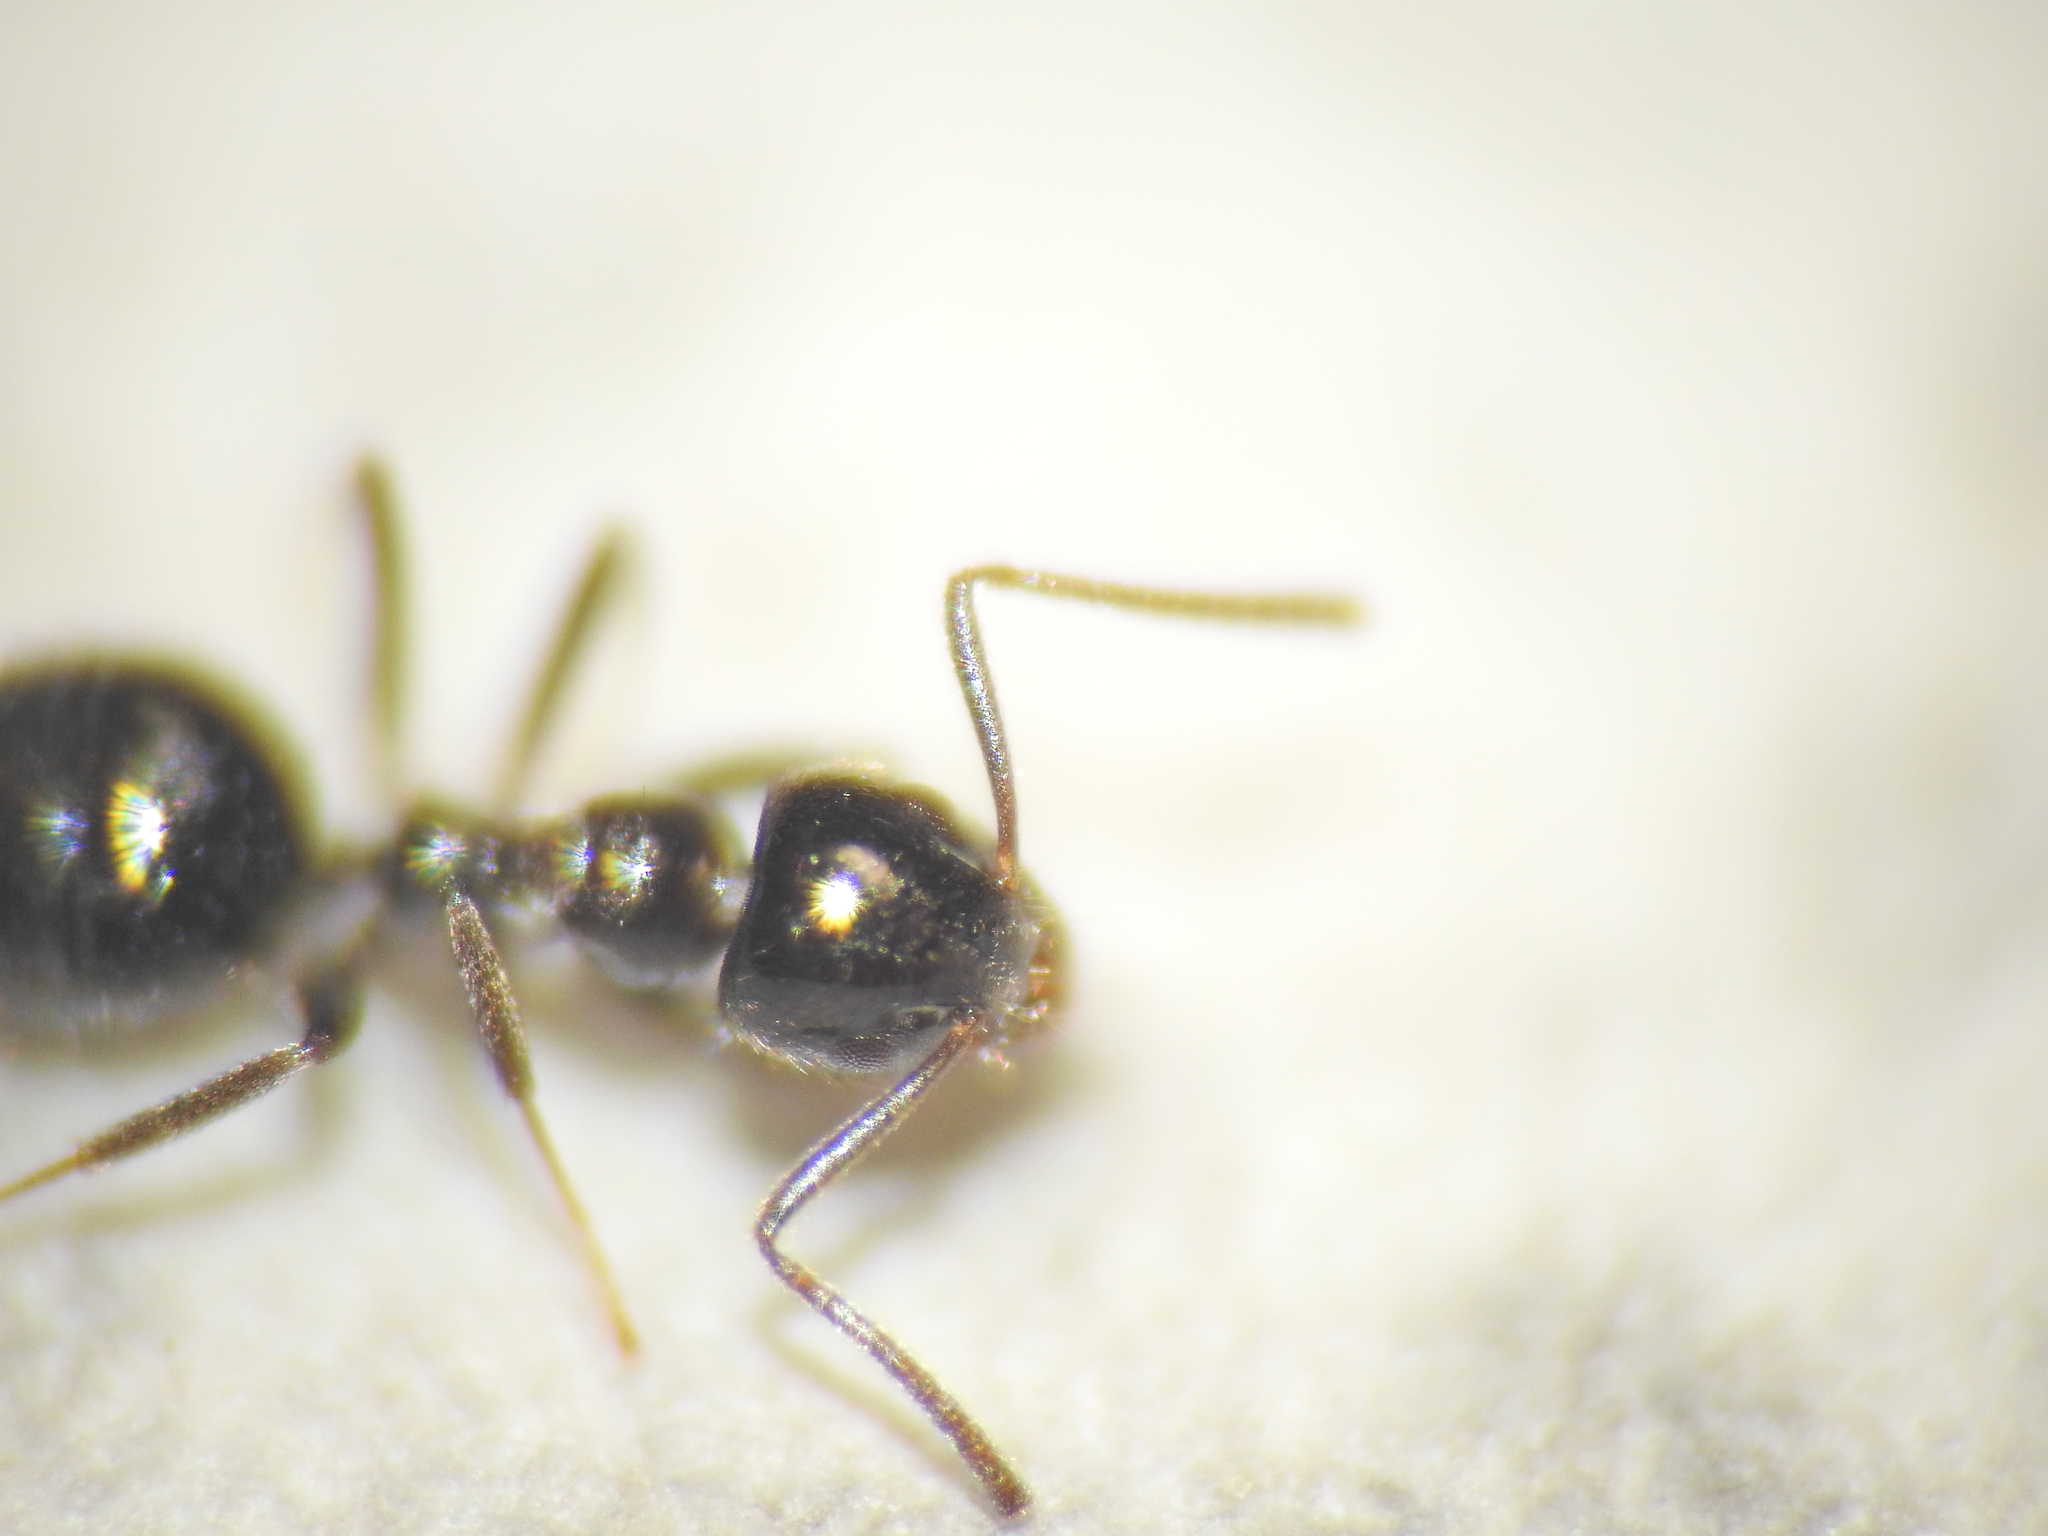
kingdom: Animalia
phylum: Arthropoda
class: Insecta
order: Hymenoptera
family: Formicidae
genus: Technomyrmex
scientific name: Technomyrmex sophiae
